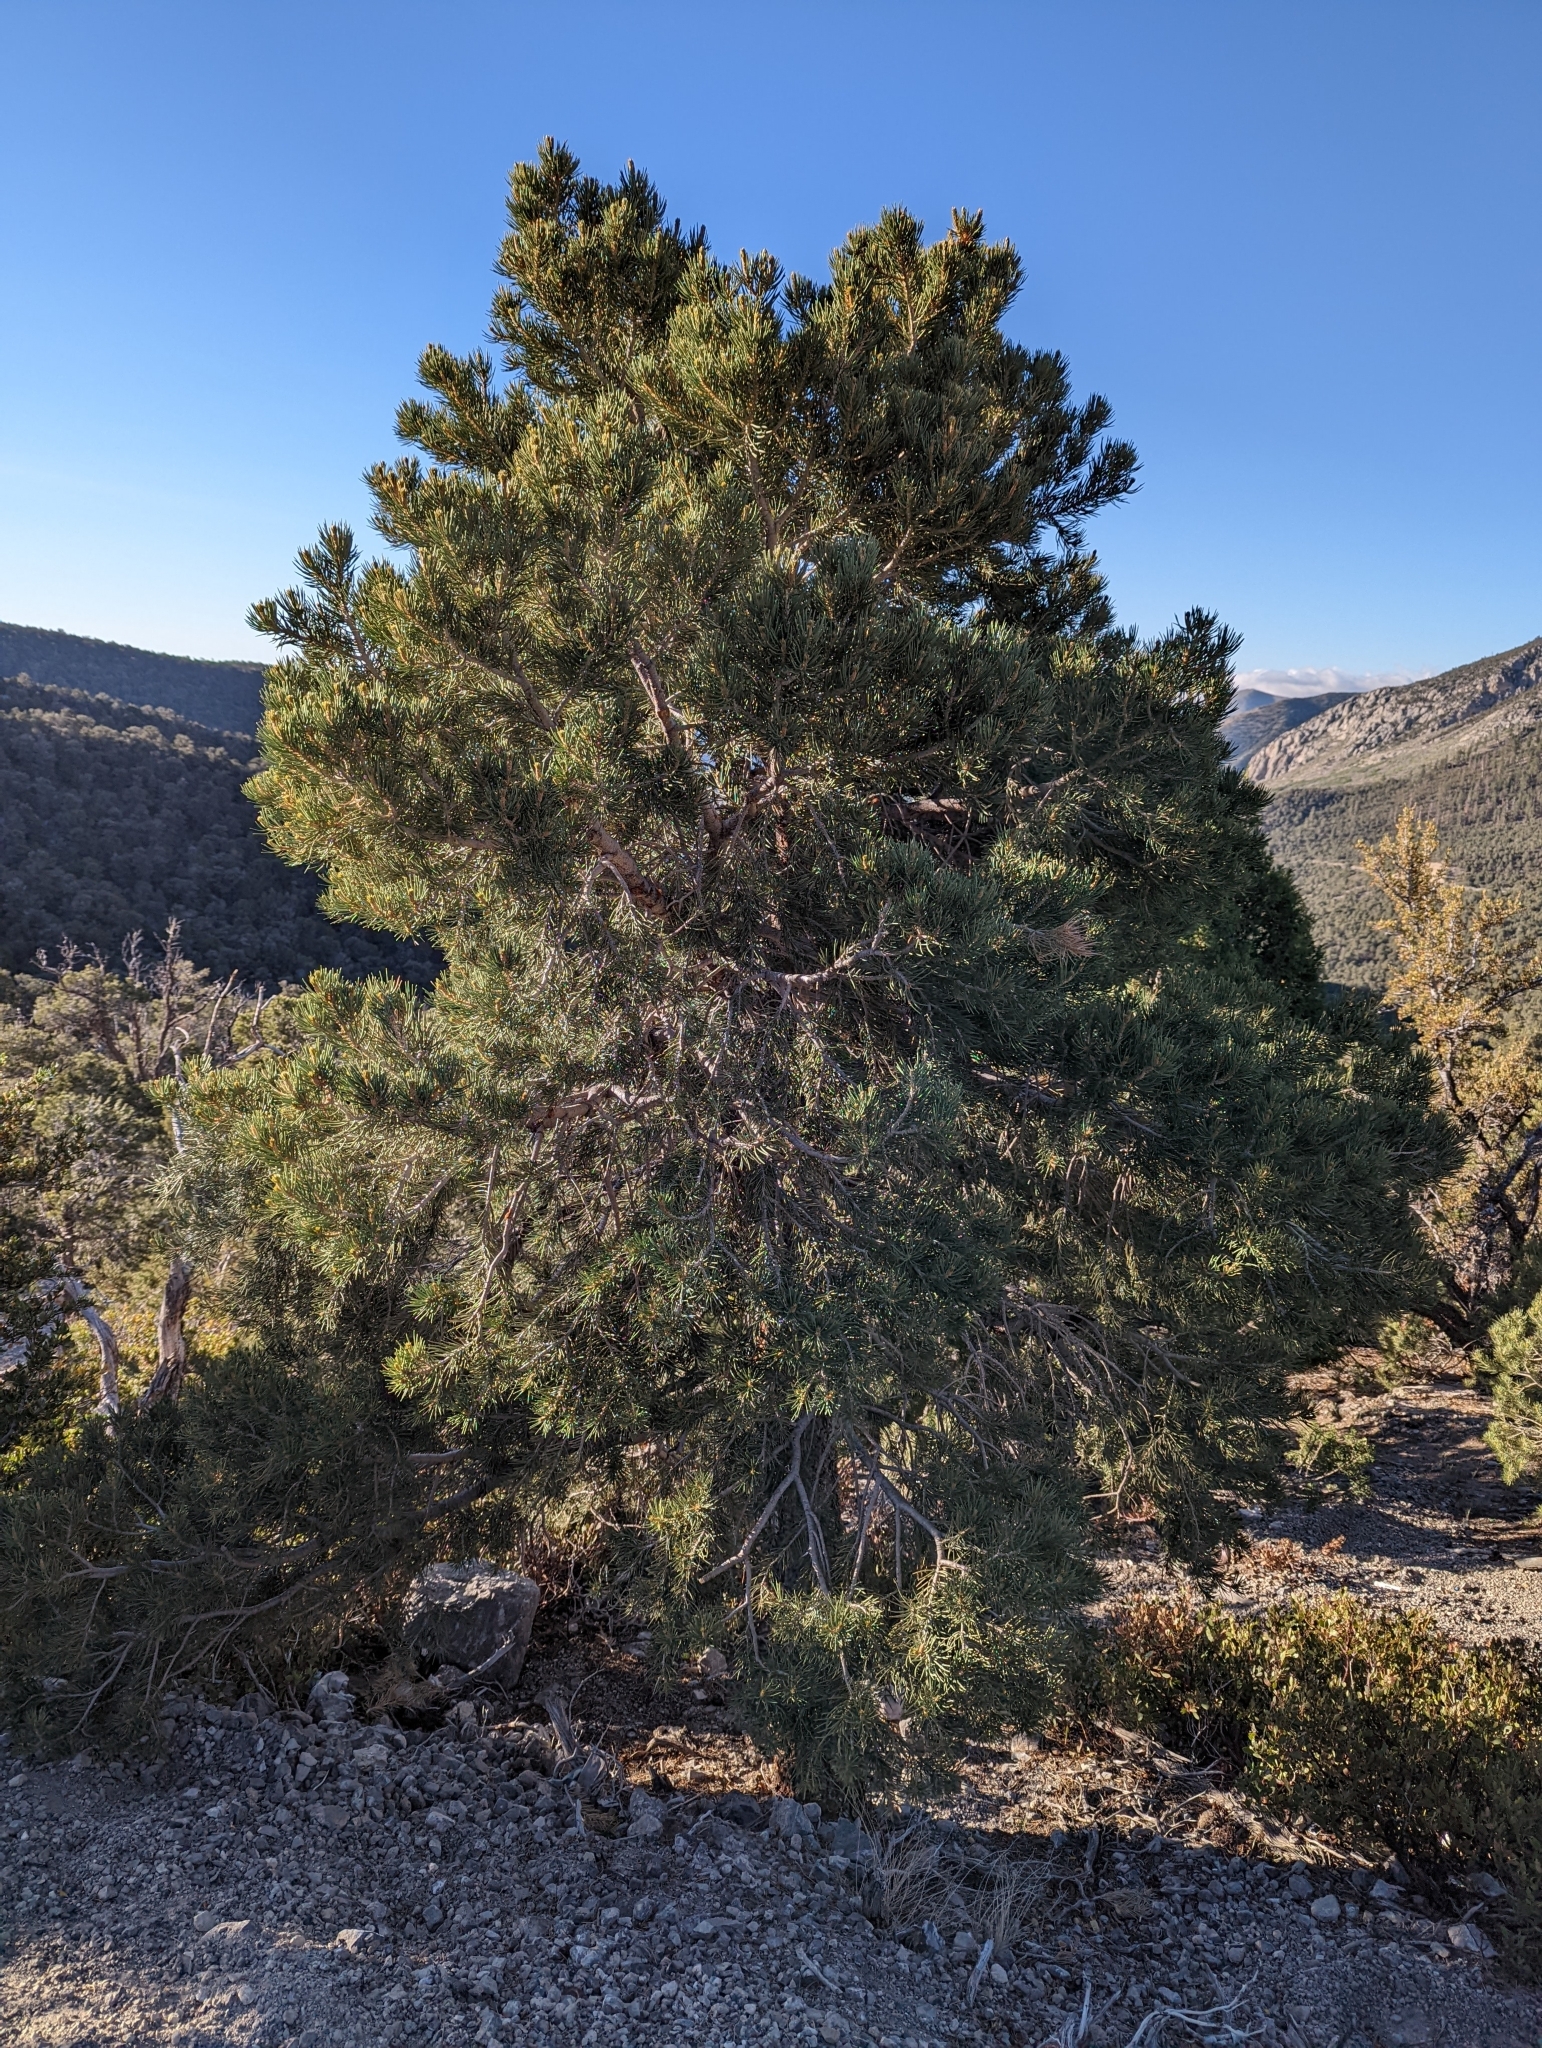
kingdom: Plantae
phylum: Tracheophyta
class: Pinopsida
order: Pinales
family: Pinaceae
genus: Pinus
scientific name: Pinus monophylla
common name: One-leaved nut pine
